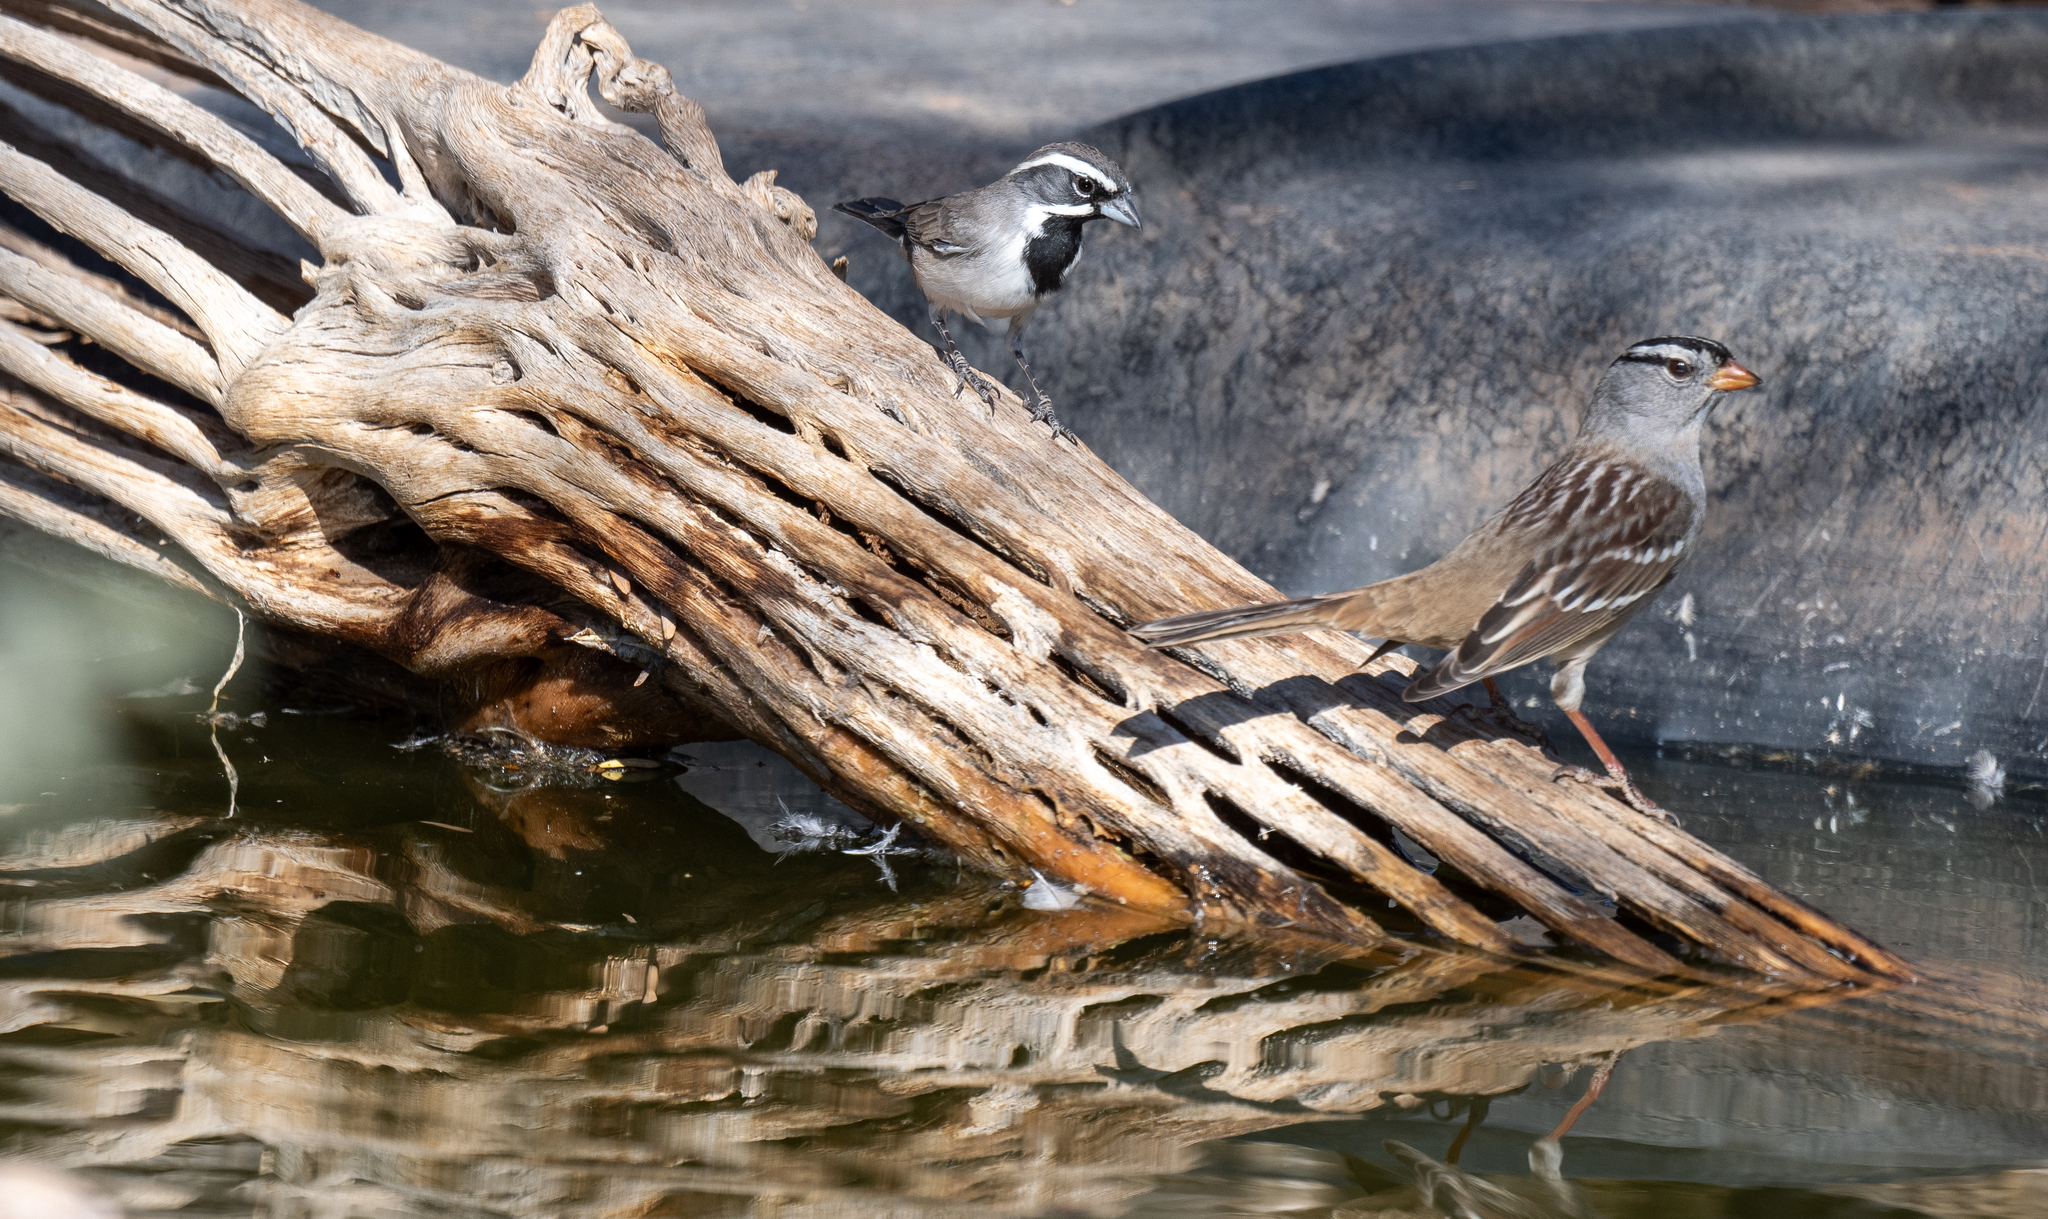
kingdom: Animalia
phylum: Chordata
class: Aves
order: Passeriformes
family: Passerellidae
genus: Amphispiza
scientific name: Amphispiza bilineata
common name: Black-throated sparrow
